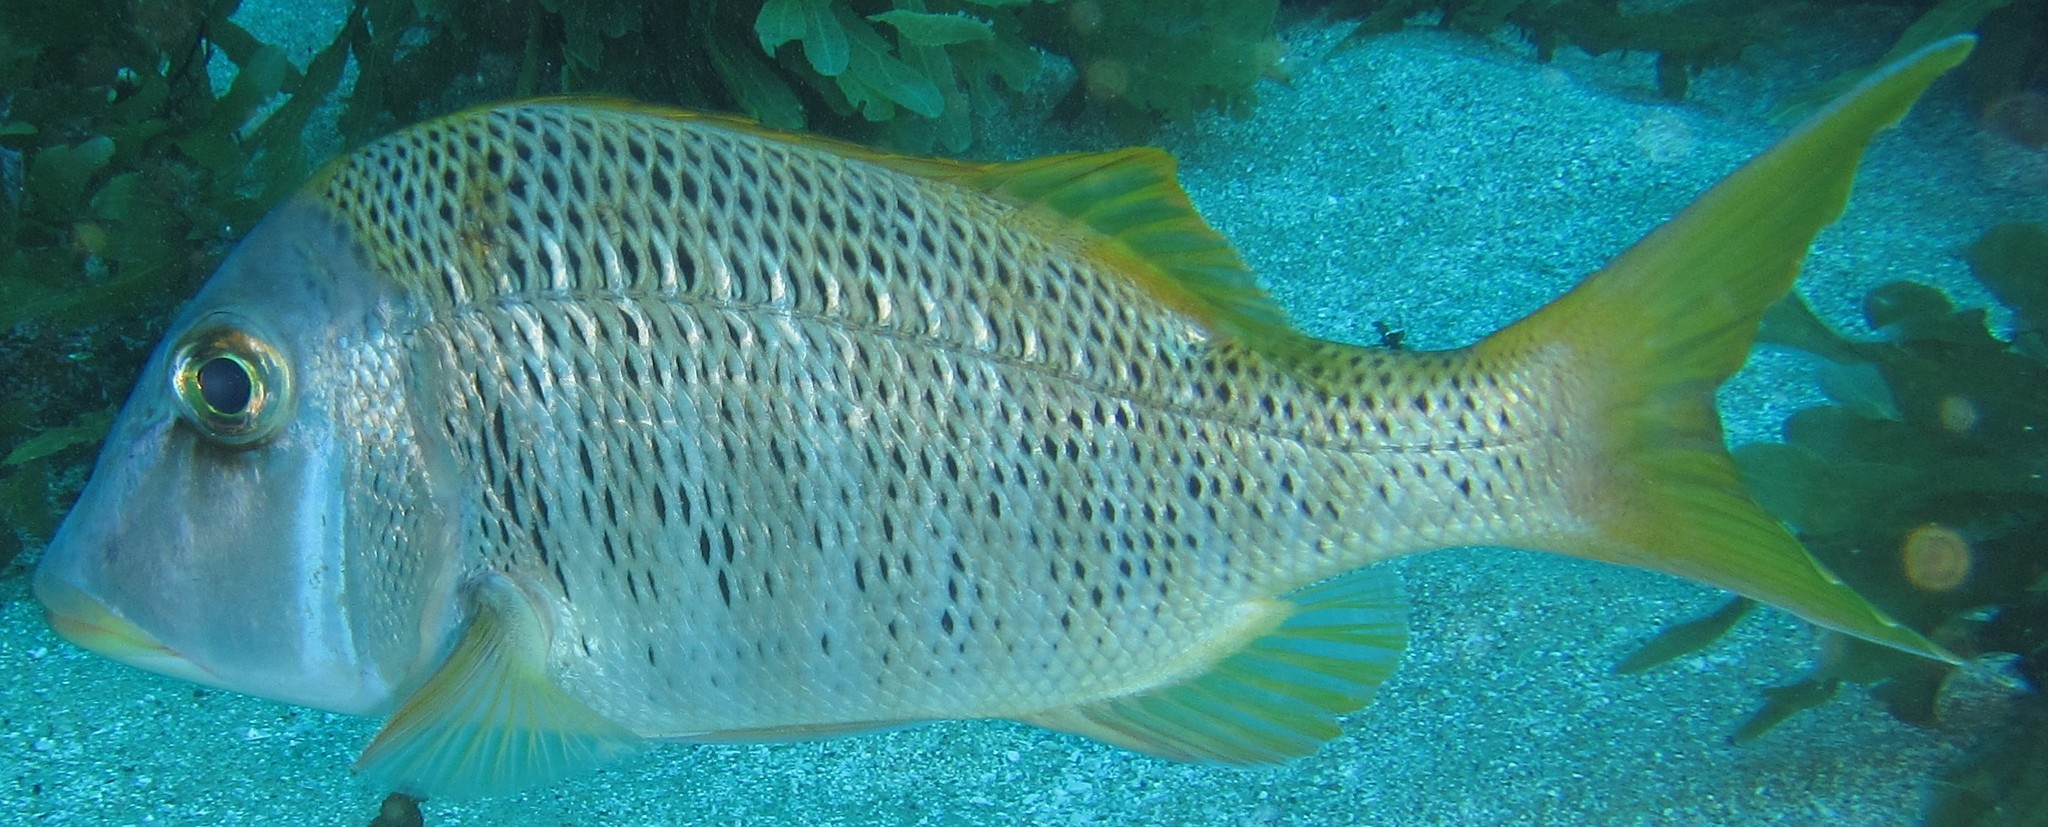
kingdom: Animalia
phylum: Chordata
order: Perciformes
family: Lethrinidae
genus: Lethrinus
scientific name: Lethrinus crocineus
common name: Yellowtail emperor
